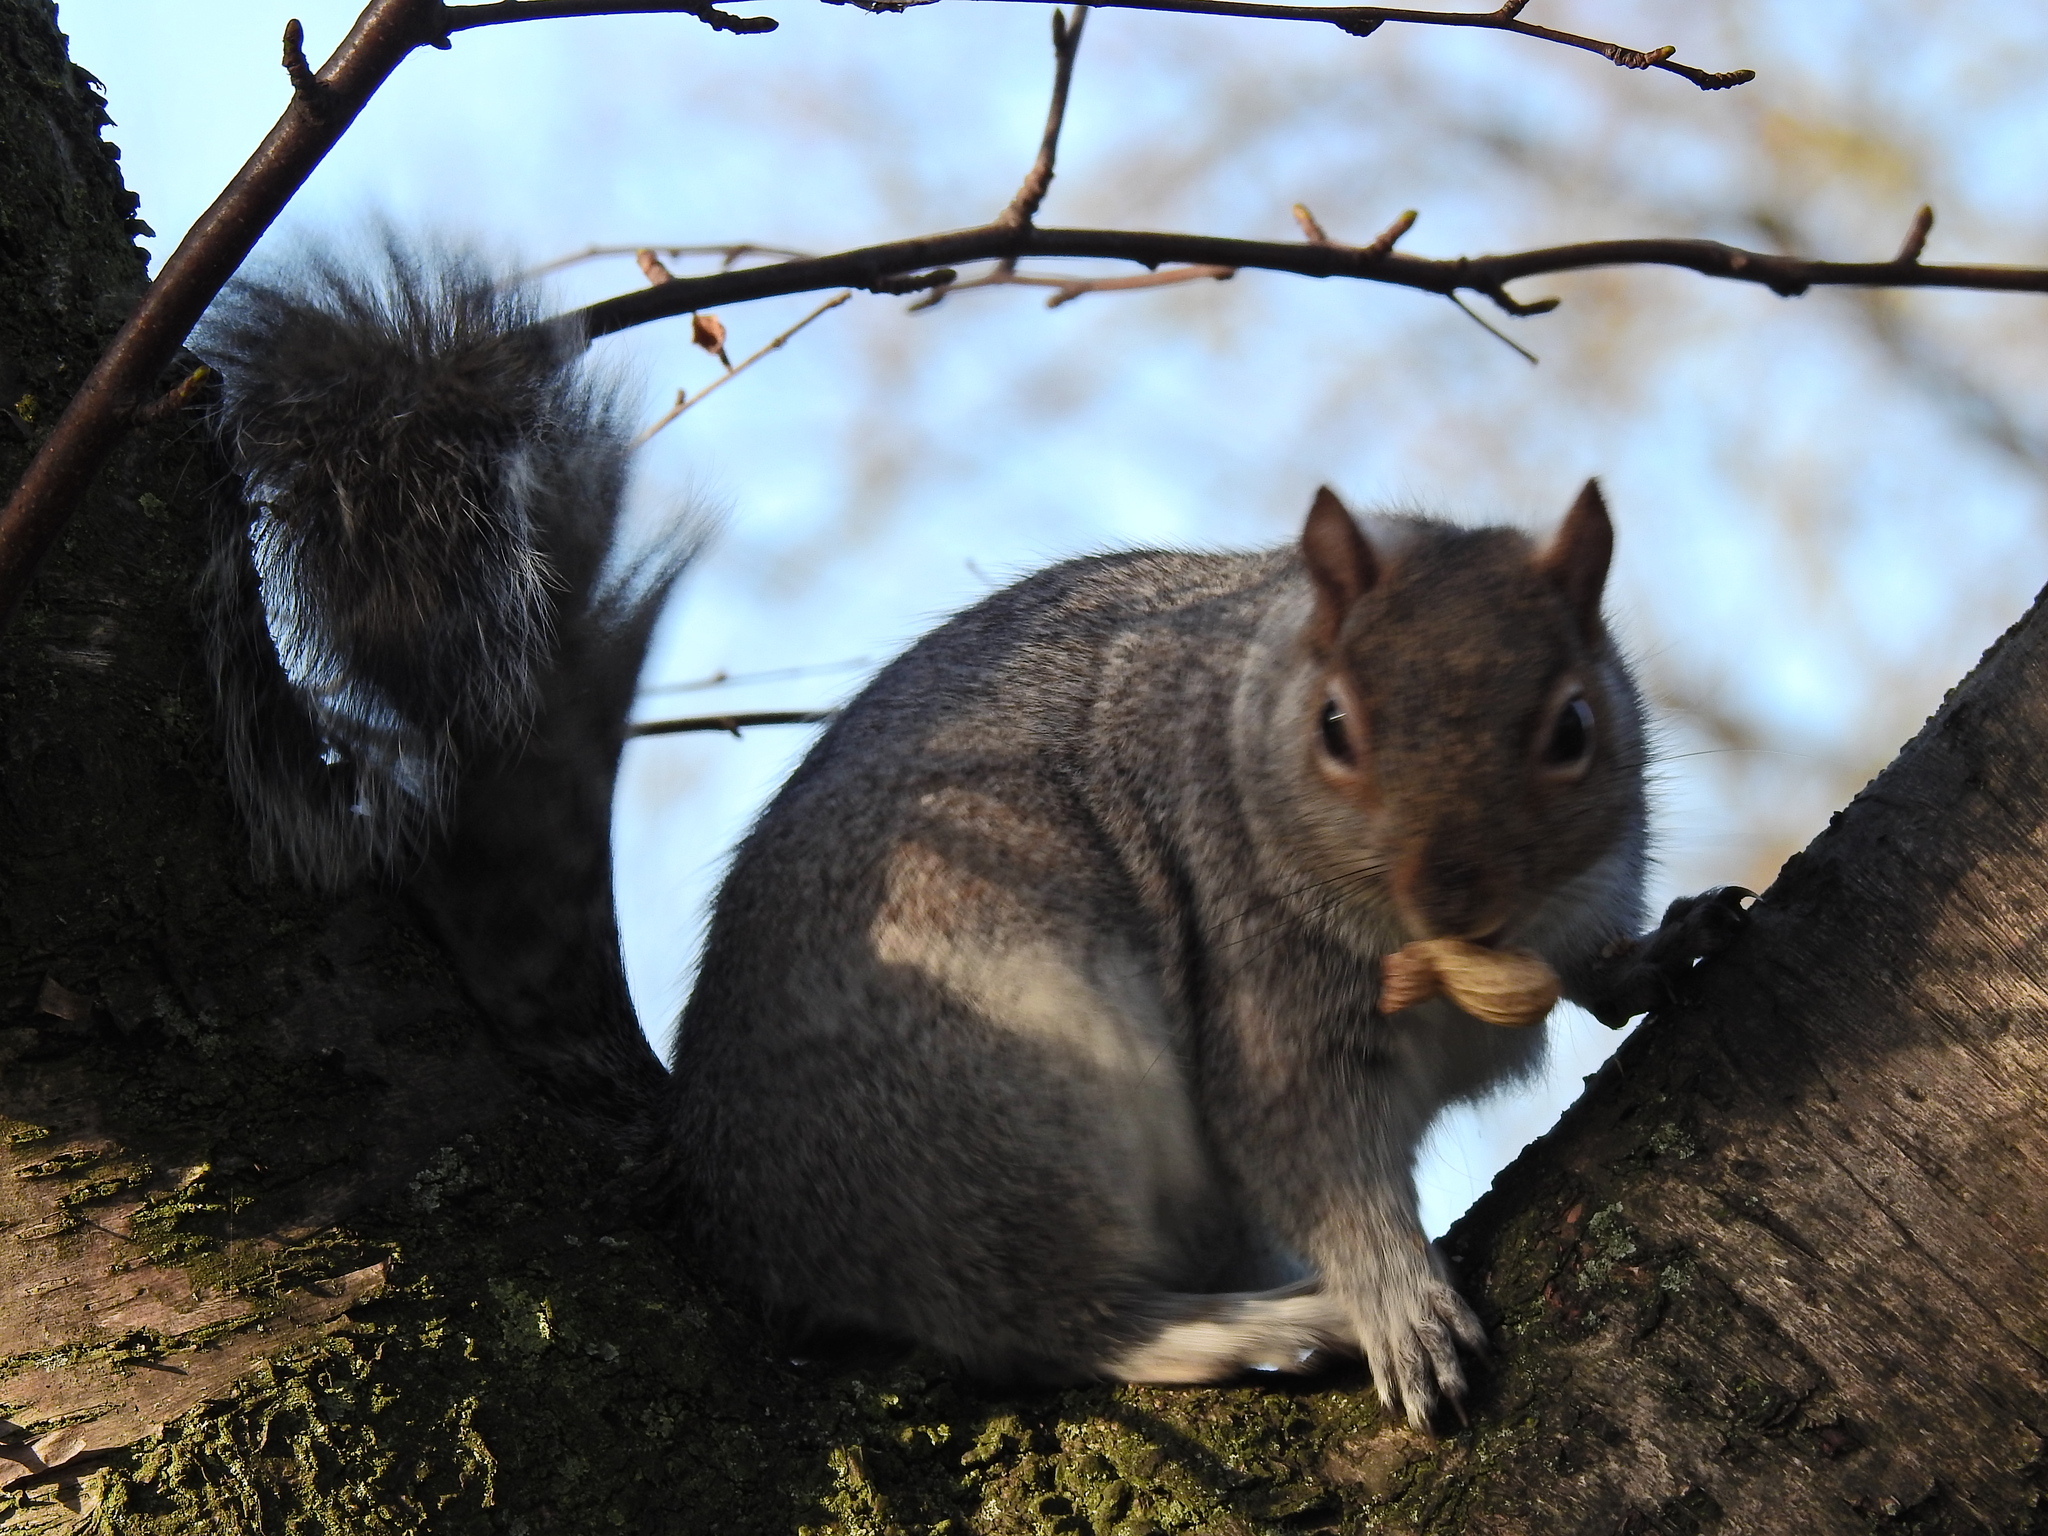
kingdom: Animalia
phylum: Chordata
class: Mammalia
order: Rodentia
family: Sciuridae
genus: Sciurus
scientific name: Sciurus carolinensis
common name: Eastern gray squirrel
